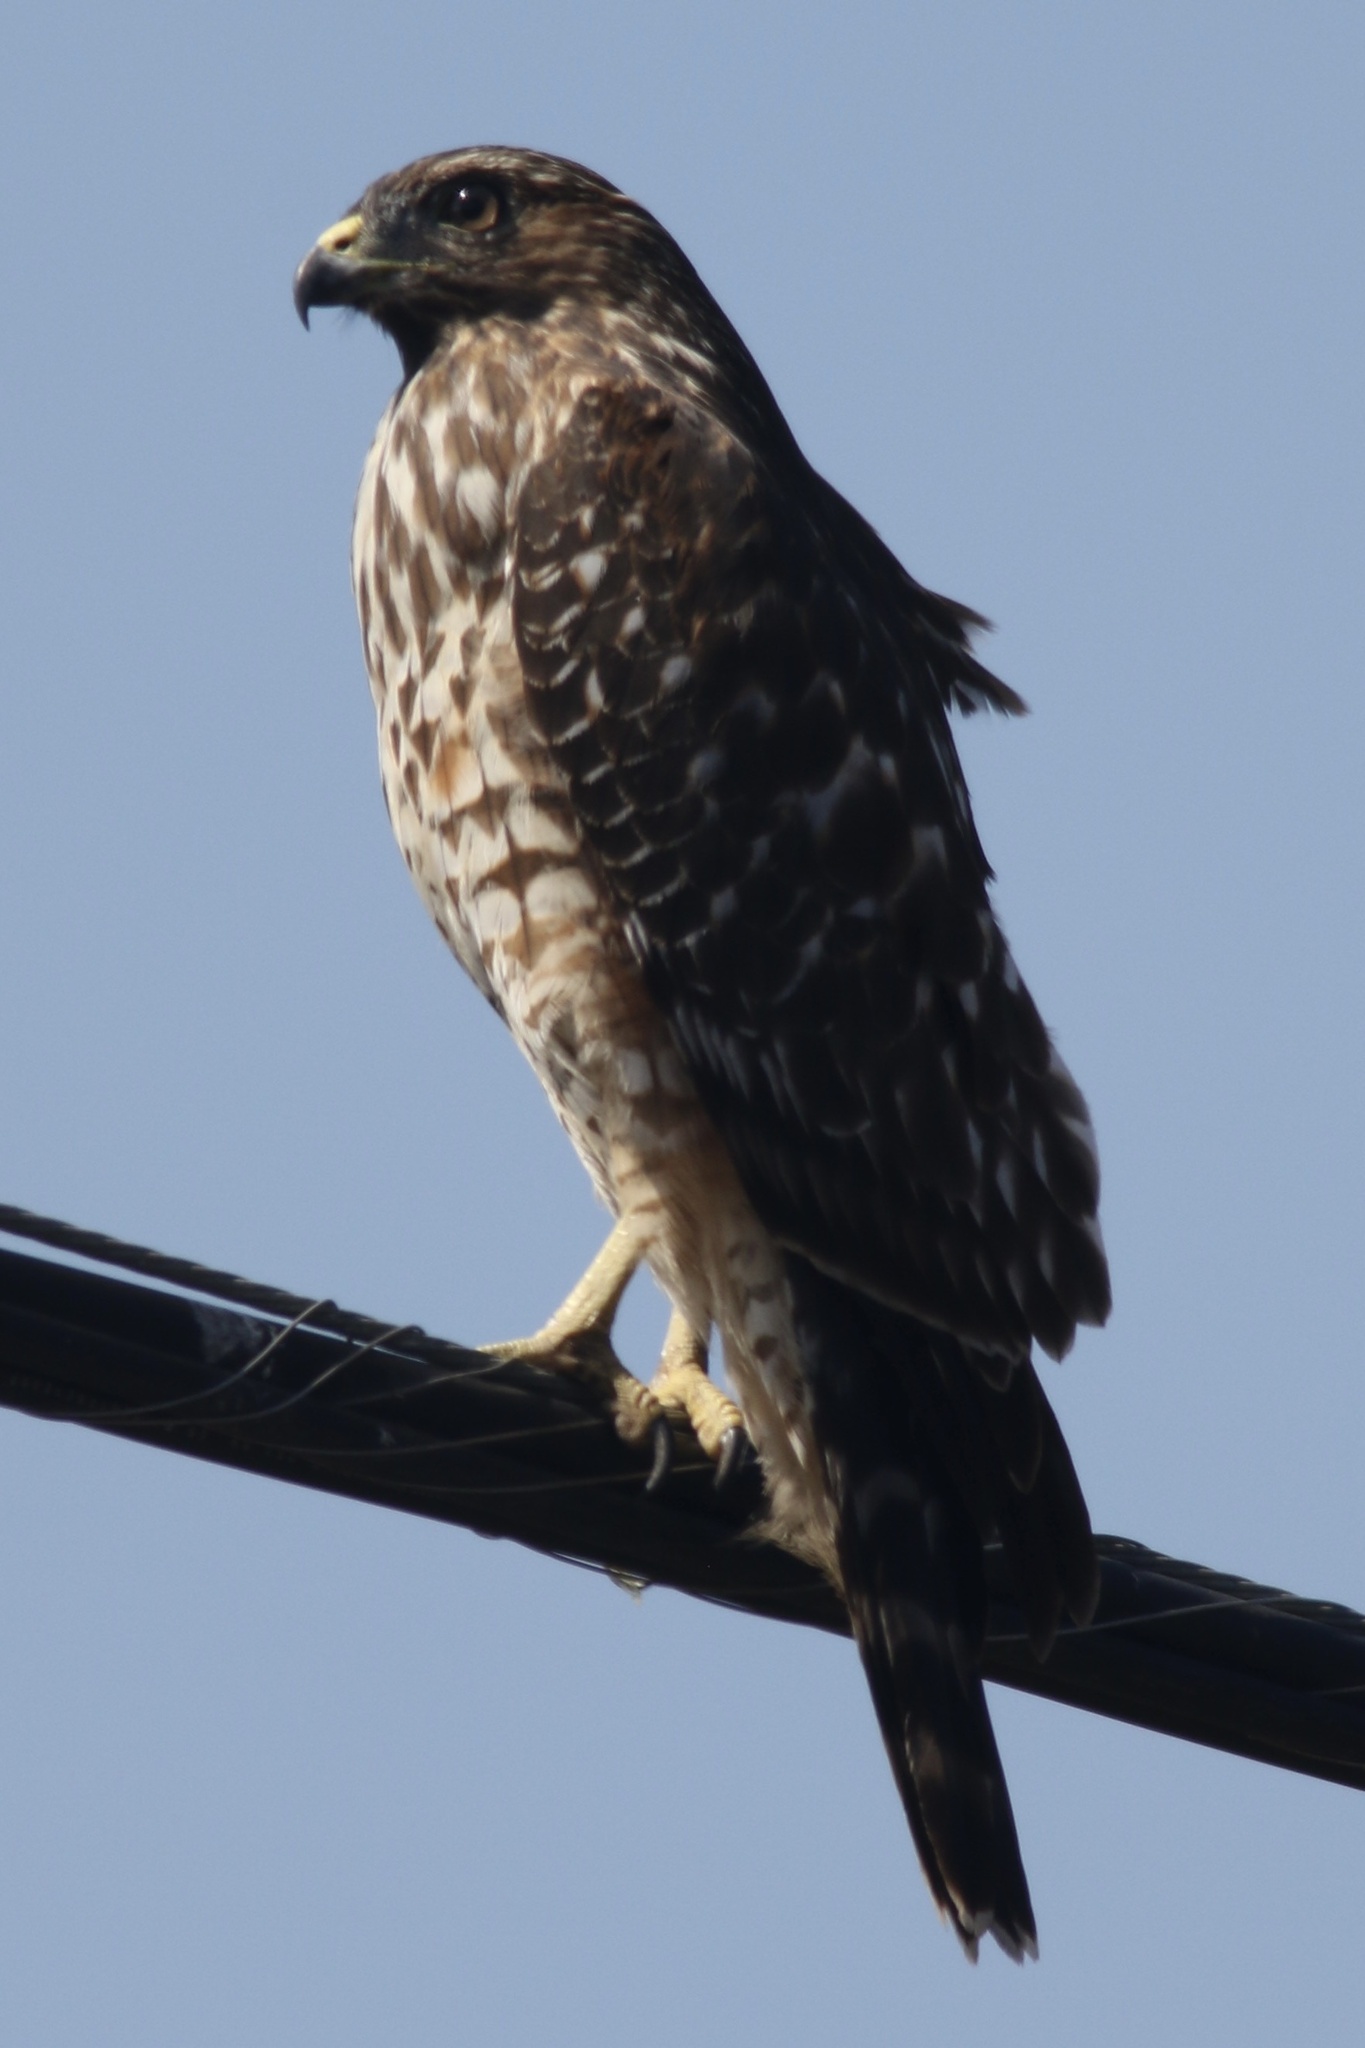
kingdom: Animalia
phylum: Chordata
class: Aves
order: Accipitriformes
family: Accipitridae
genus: Buteo
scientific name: Buteo lineatus
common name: Red-shouldered hawk
